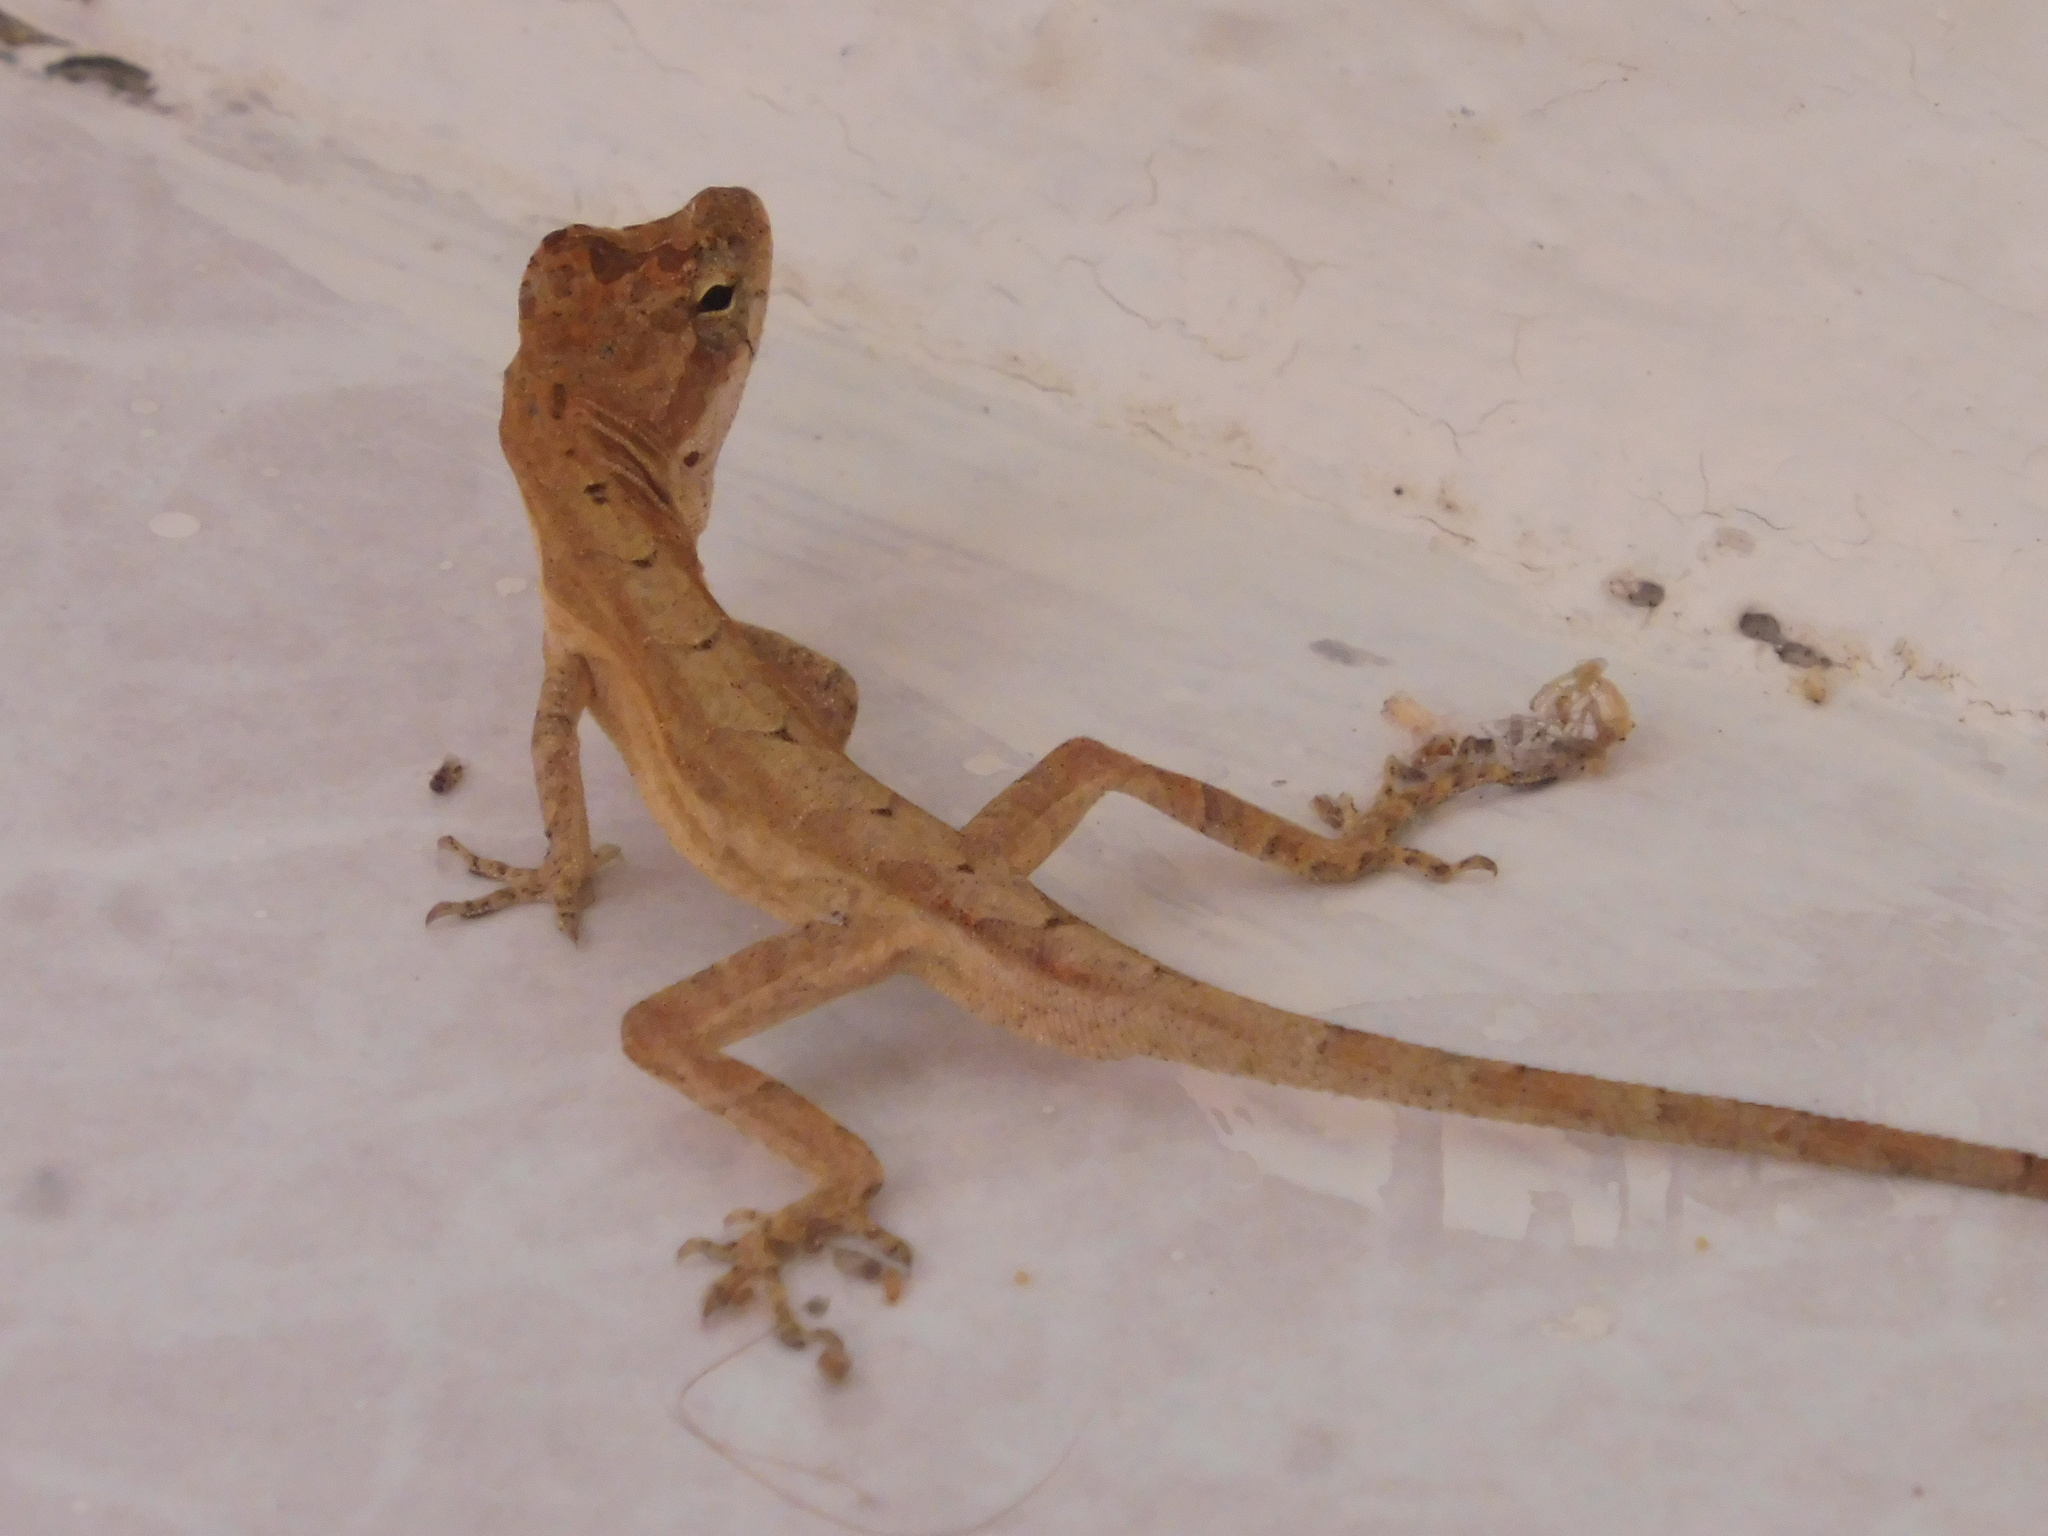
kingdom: Animalia
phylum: Chordata
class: Squamata
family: Dactyloidae
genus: Anolis
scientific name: Anolis nebulosus
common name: Clouded anole
